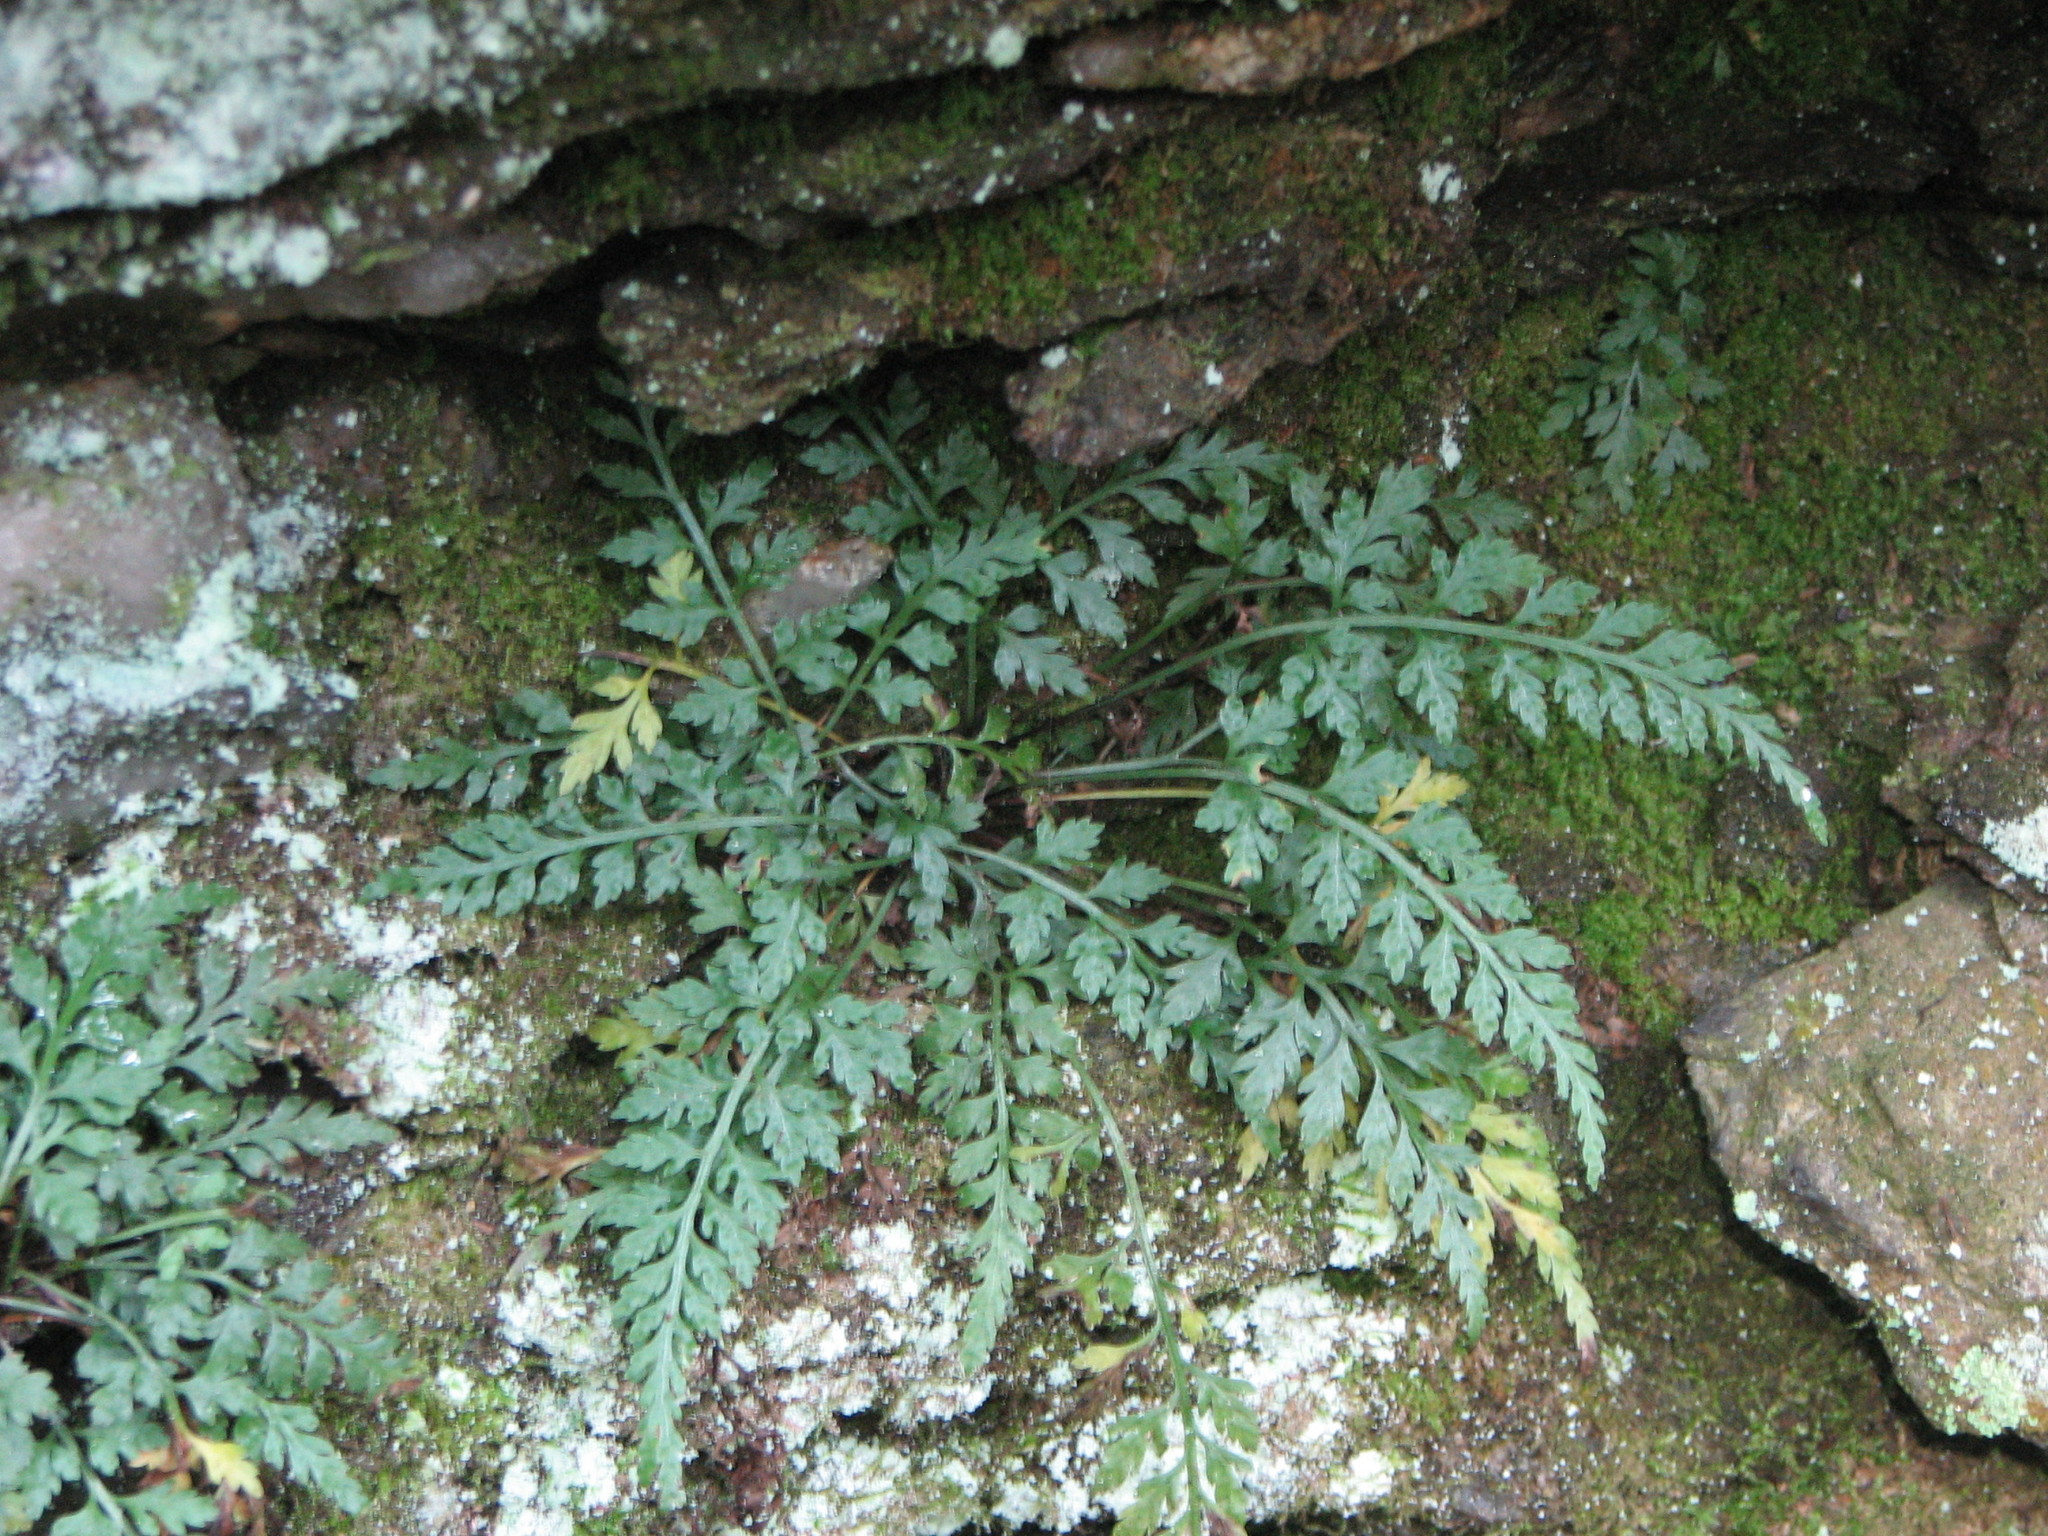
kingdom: Plantae
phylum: Tracheophyta
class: Polypodiopsida
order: Polypodiales
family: Aspleniaceae
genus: Asplenium
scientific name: Asplenium montanum
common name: Mountain spleenwort
